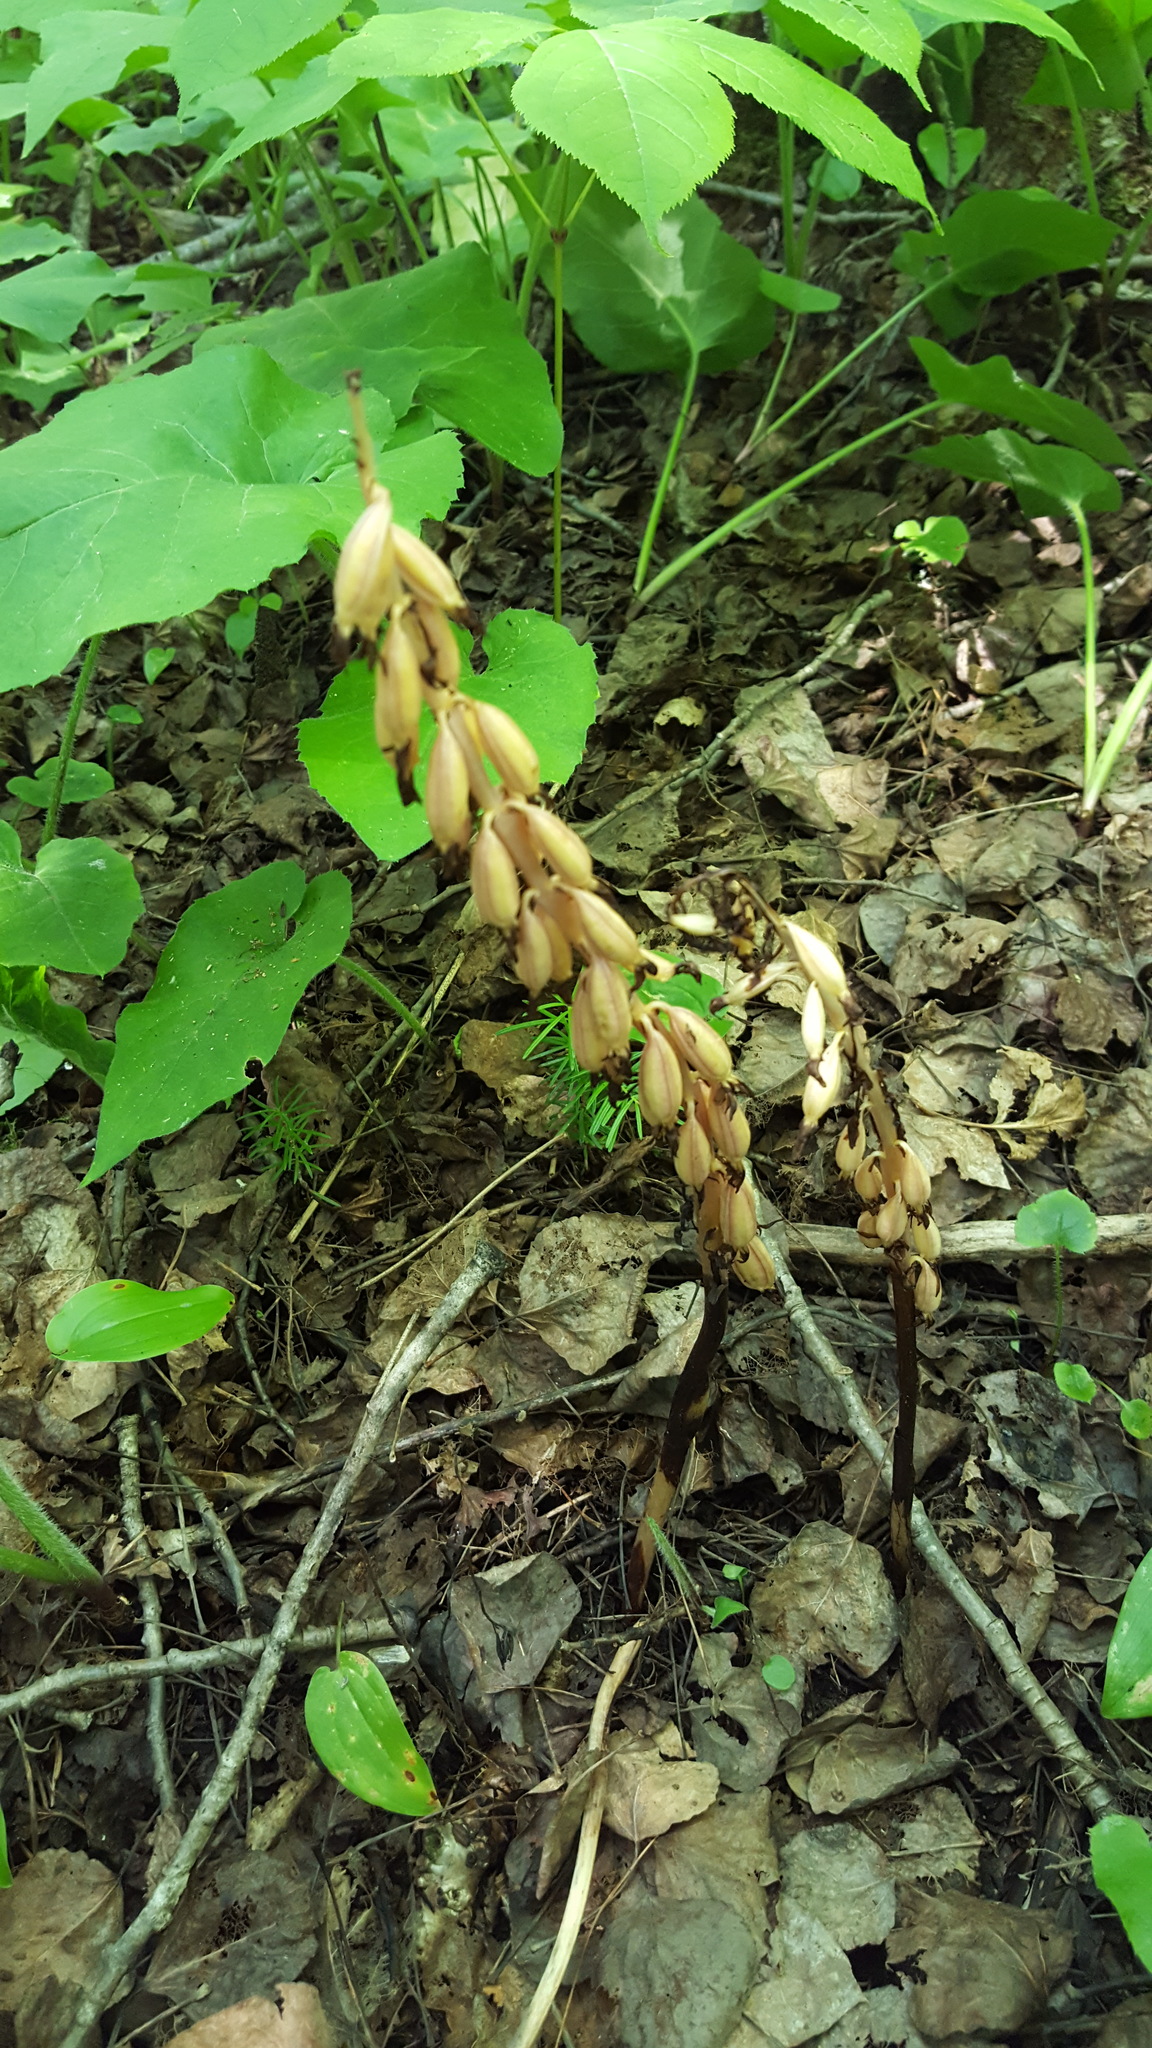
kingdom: Plantae
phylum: Tracheophyta
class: Liliopsida
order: Asparagales
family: Orchidaceae
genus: Corallorhiza
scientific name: Corallorhiza maculata
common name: Spotted coralroot
